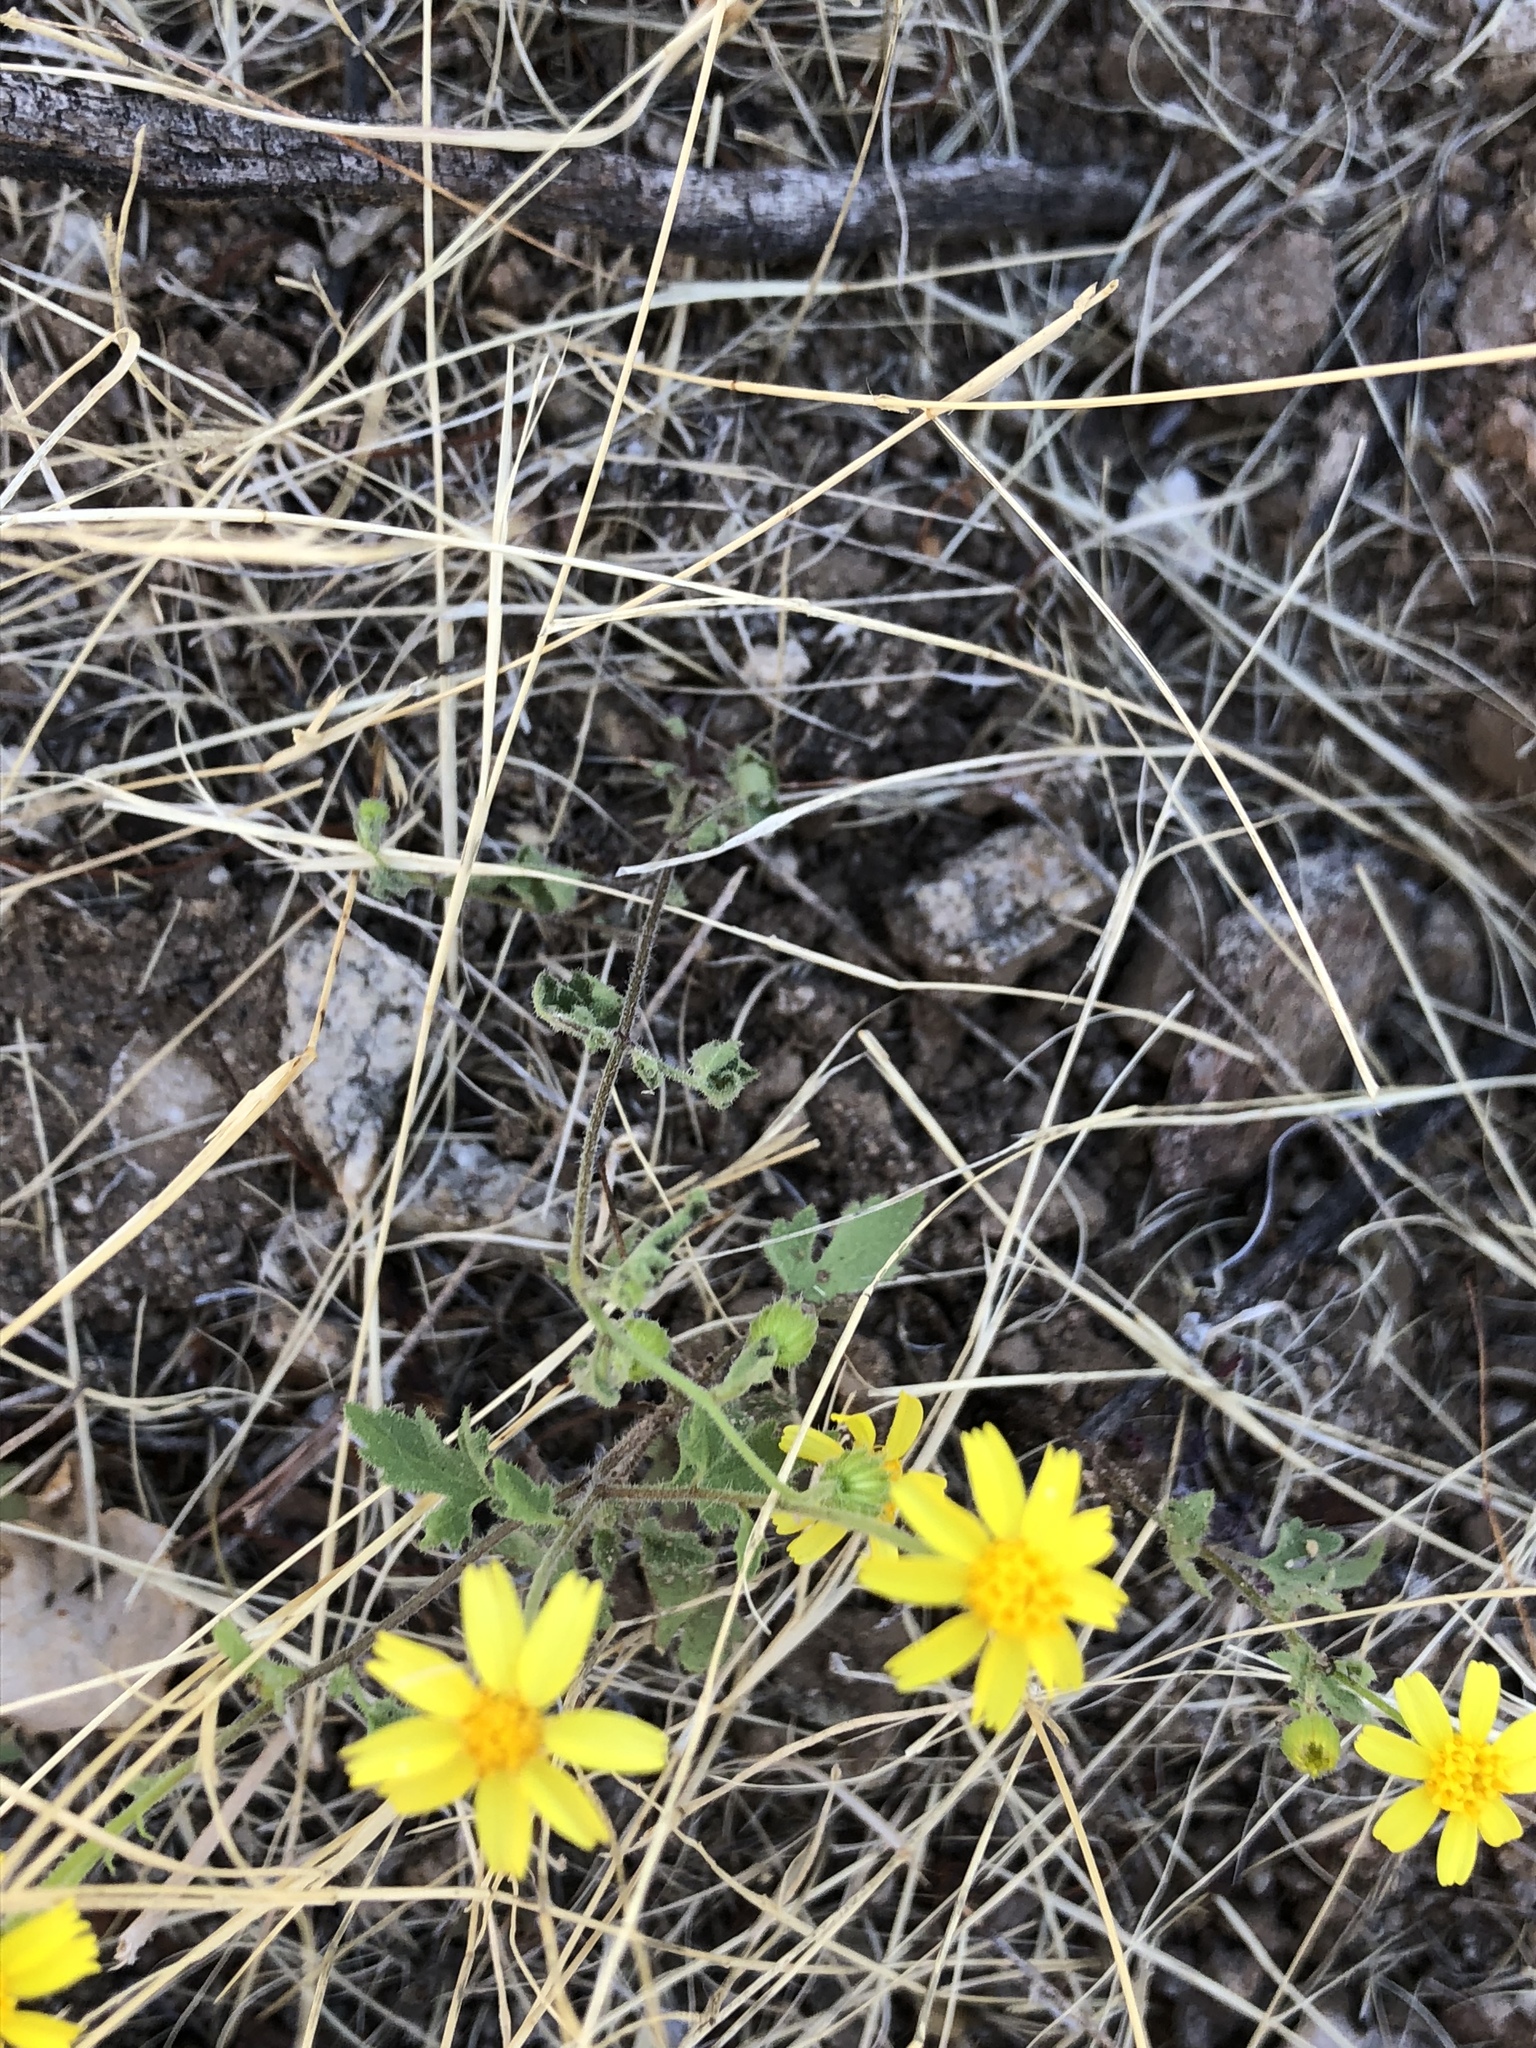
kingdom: Plantae
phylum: Tracheophyta
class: Magnoliopsida
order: Asterales
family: Asteraceae
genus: Perityle
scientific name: Perityle californica
